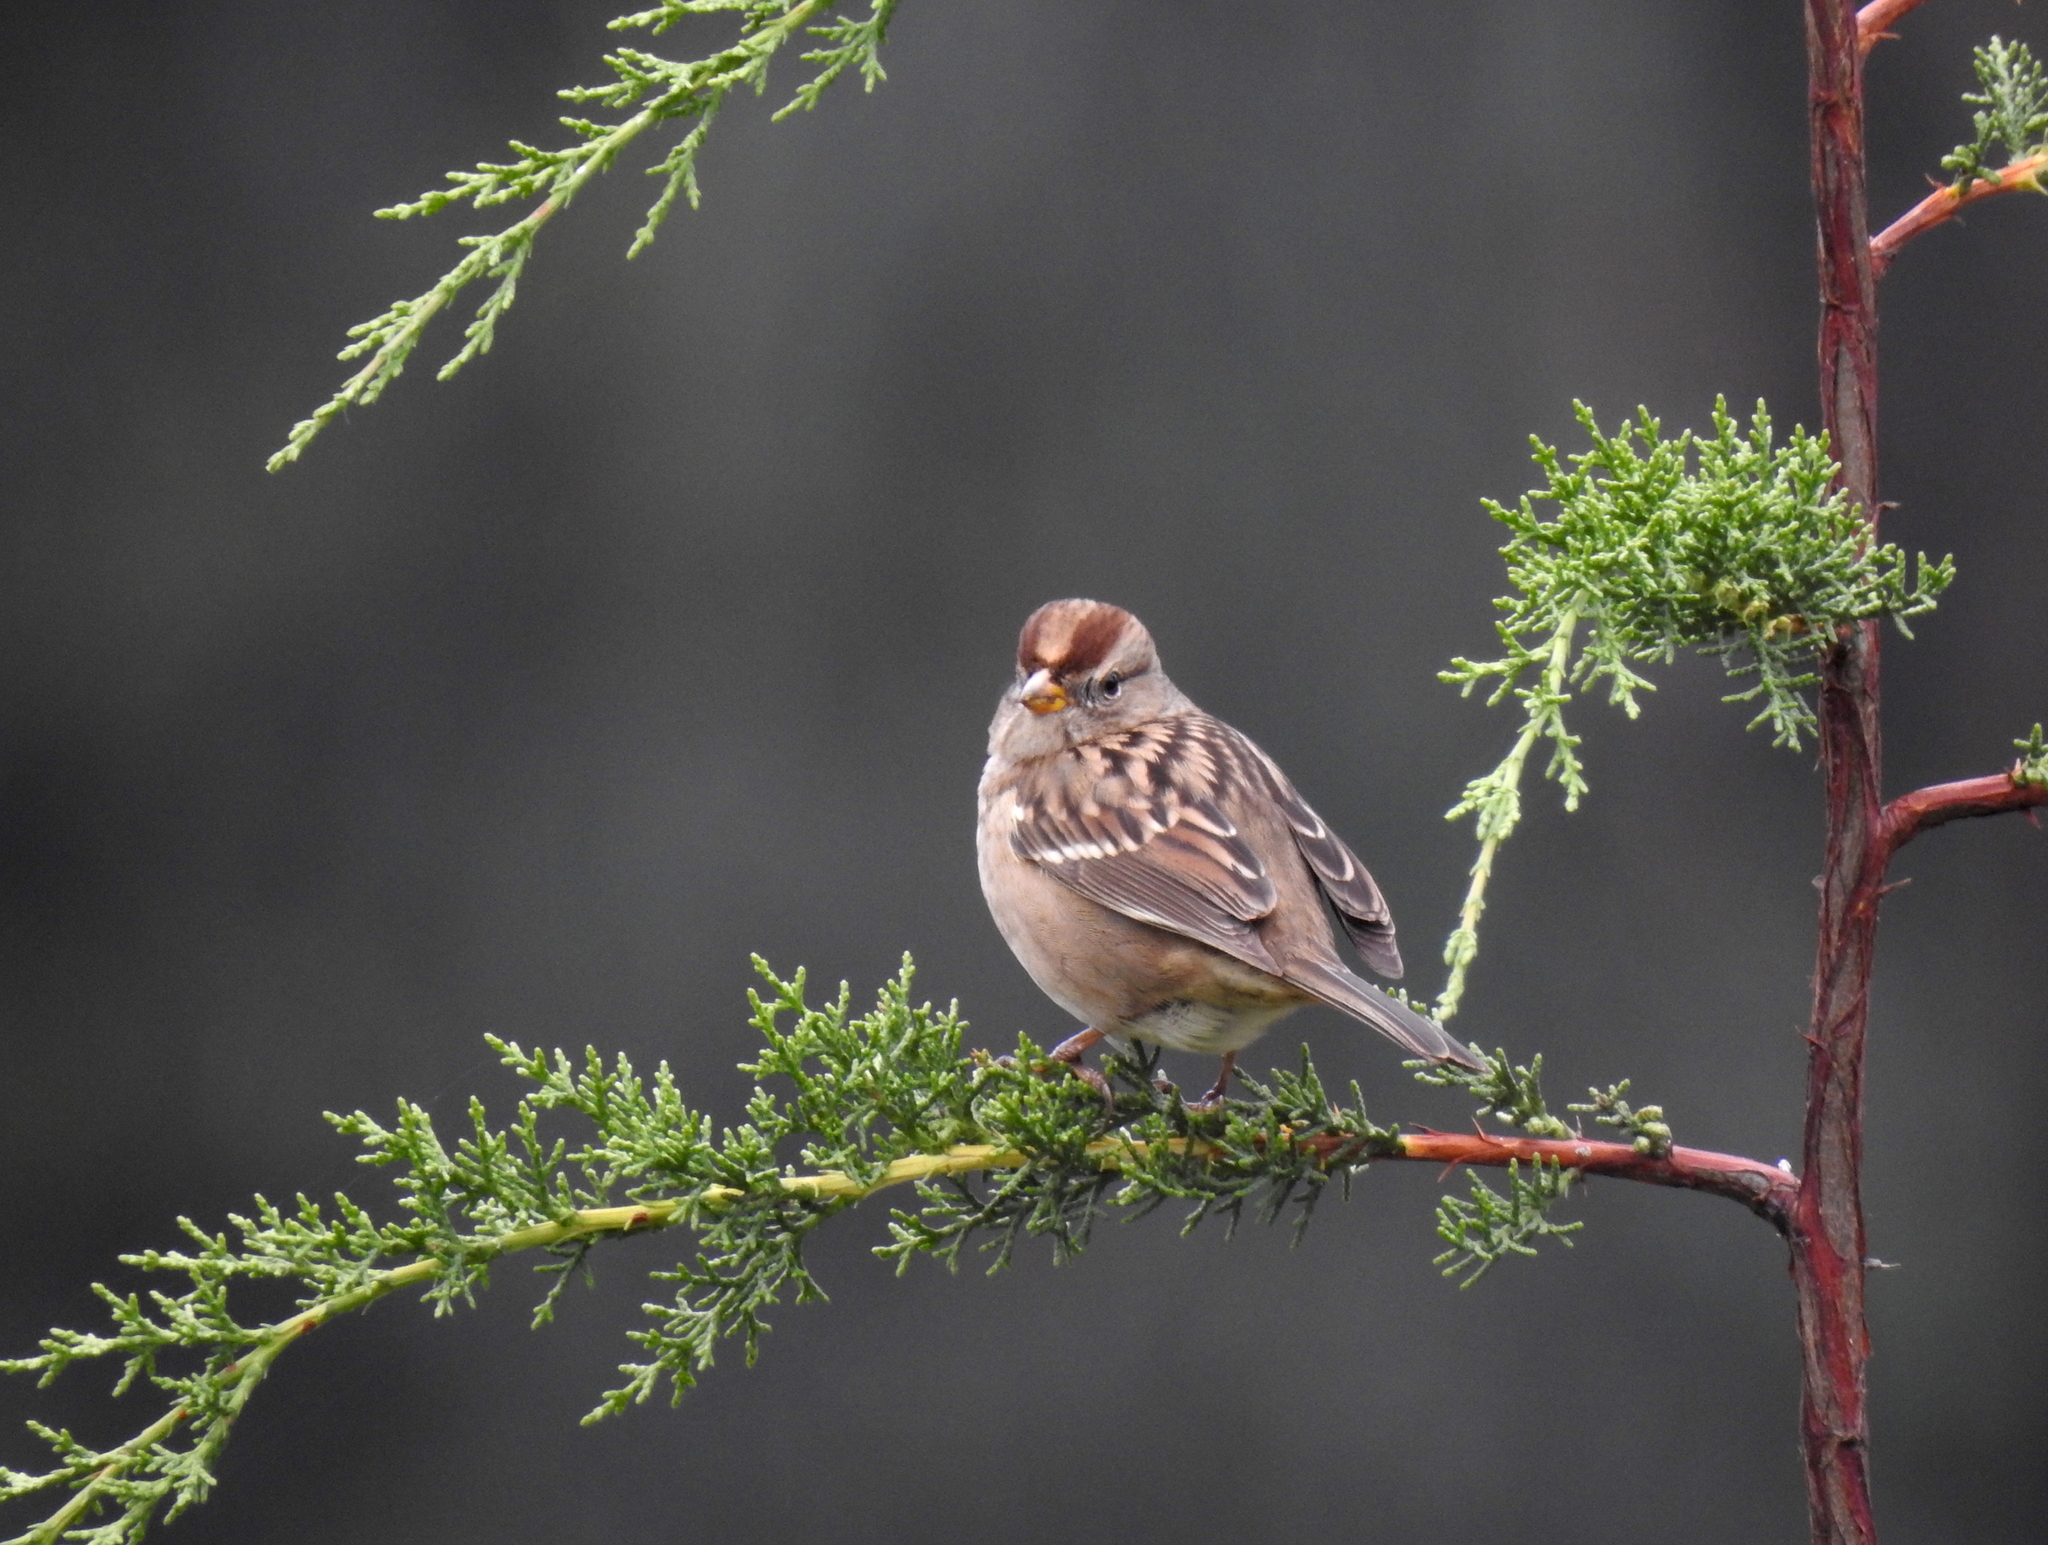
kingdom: Animalia
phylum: Chordata
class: Aves
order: Passeriformes
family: Passerellidae
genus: Zonotrichia
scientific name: Zonotrichia leucophrys
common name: White-crowned sparrow
